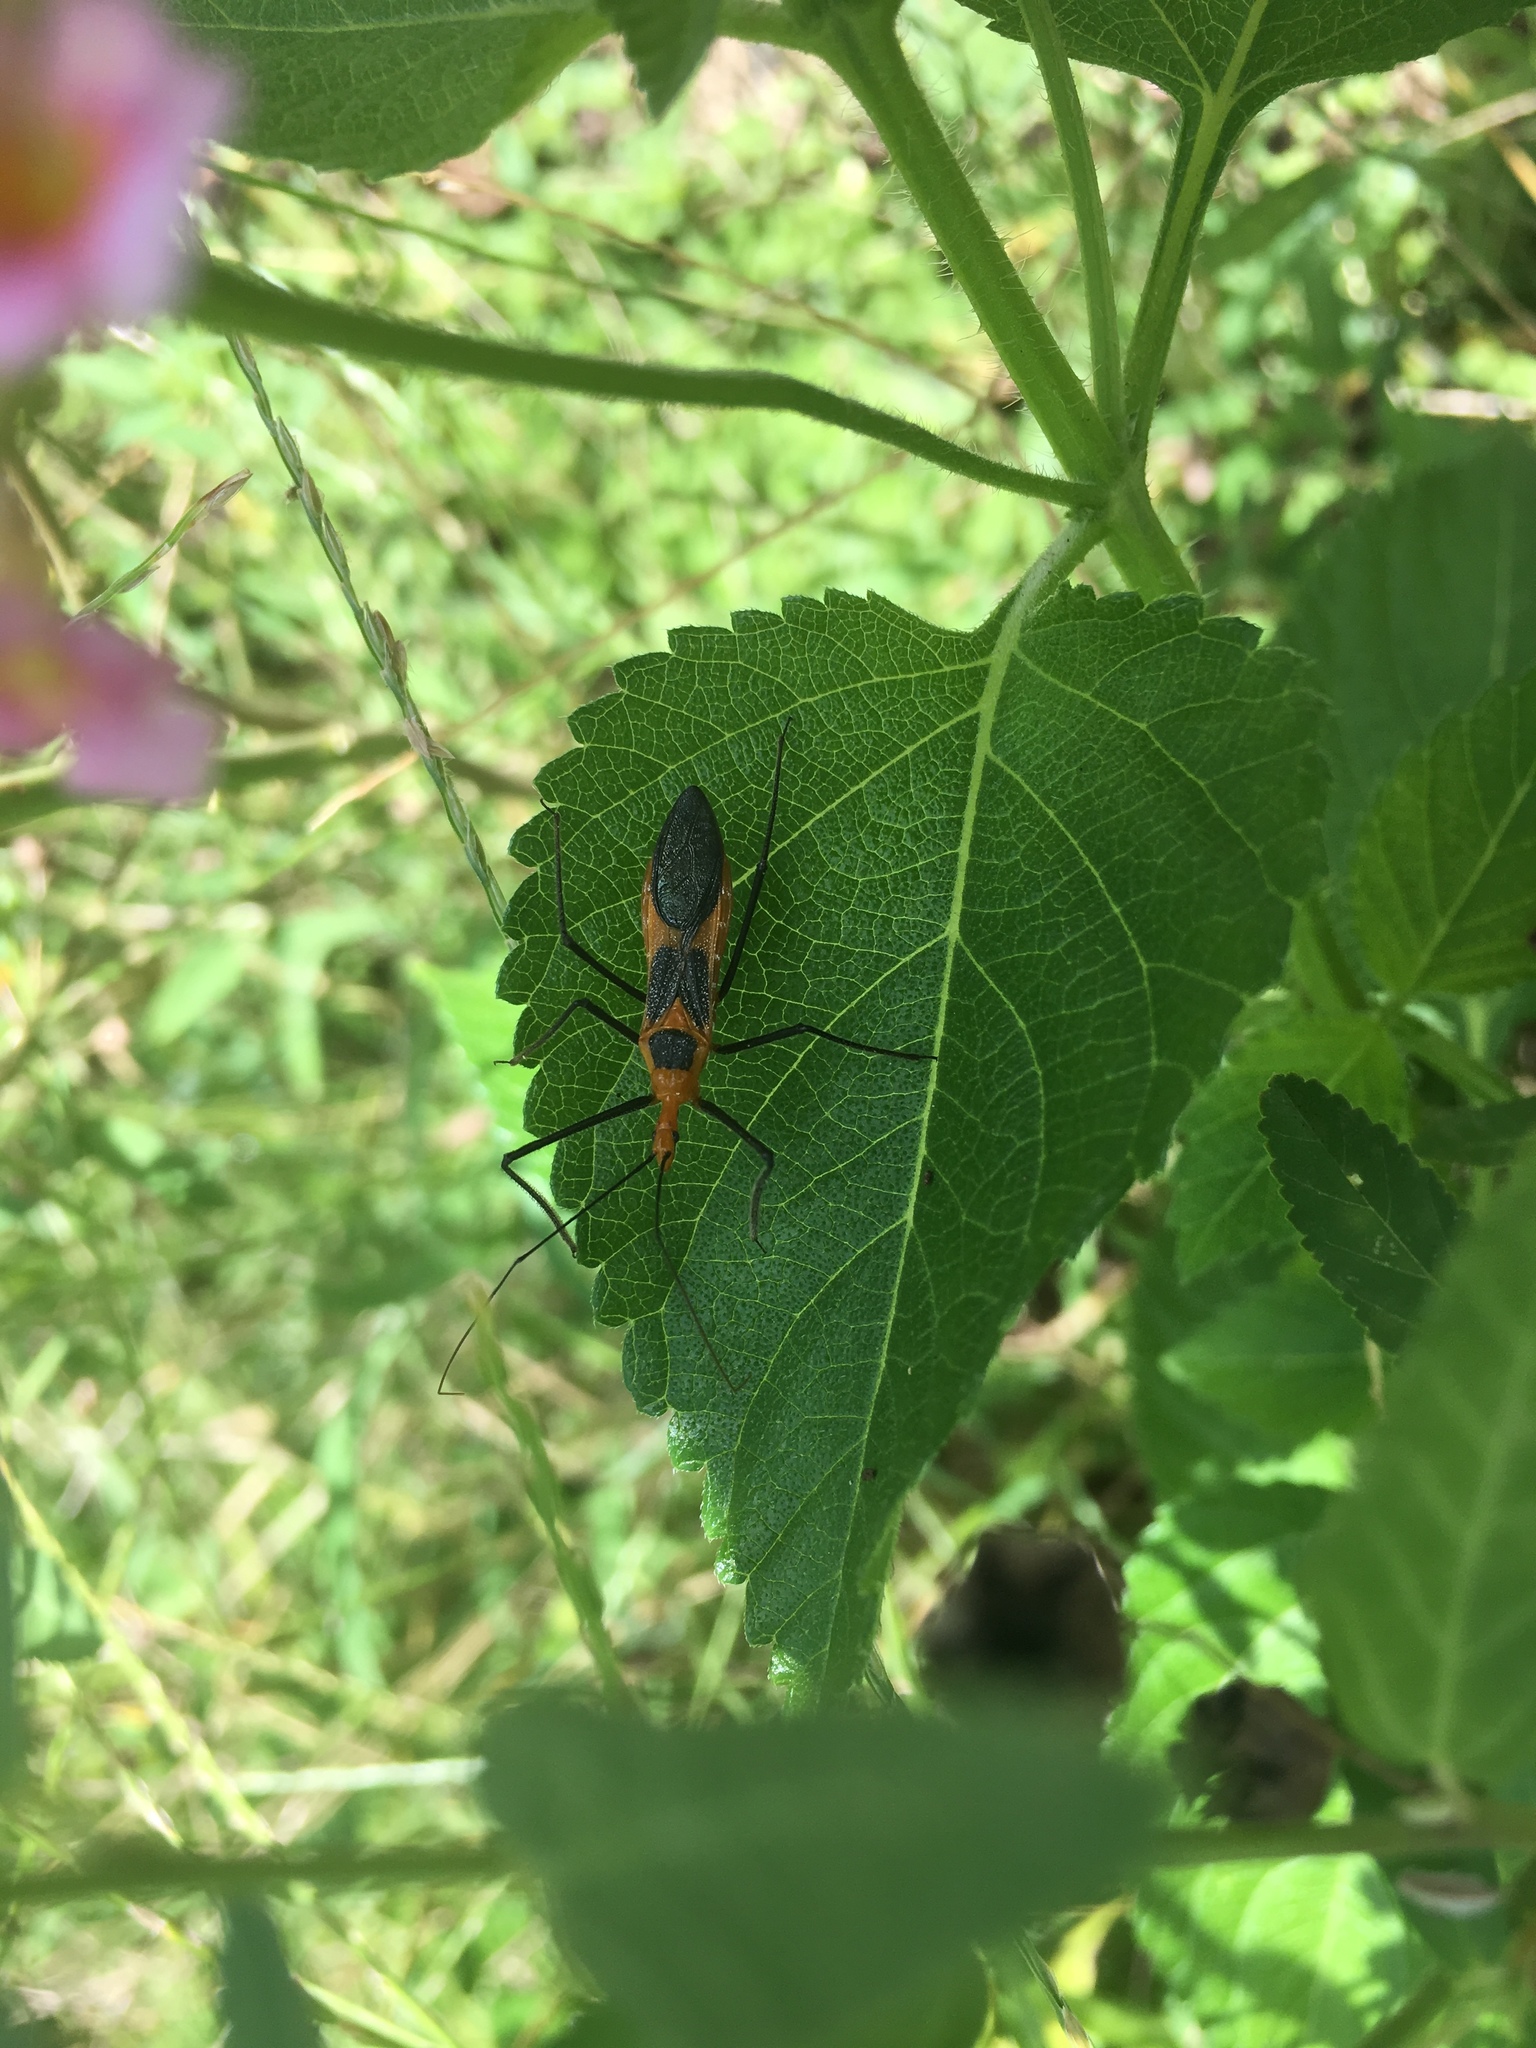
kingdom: Animalia
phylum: Arthropoda
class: Insecta
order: Hemiptera
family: Reduviidae
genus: Zelus
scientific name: Zelus longipes
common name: Milkweed assassin bug
